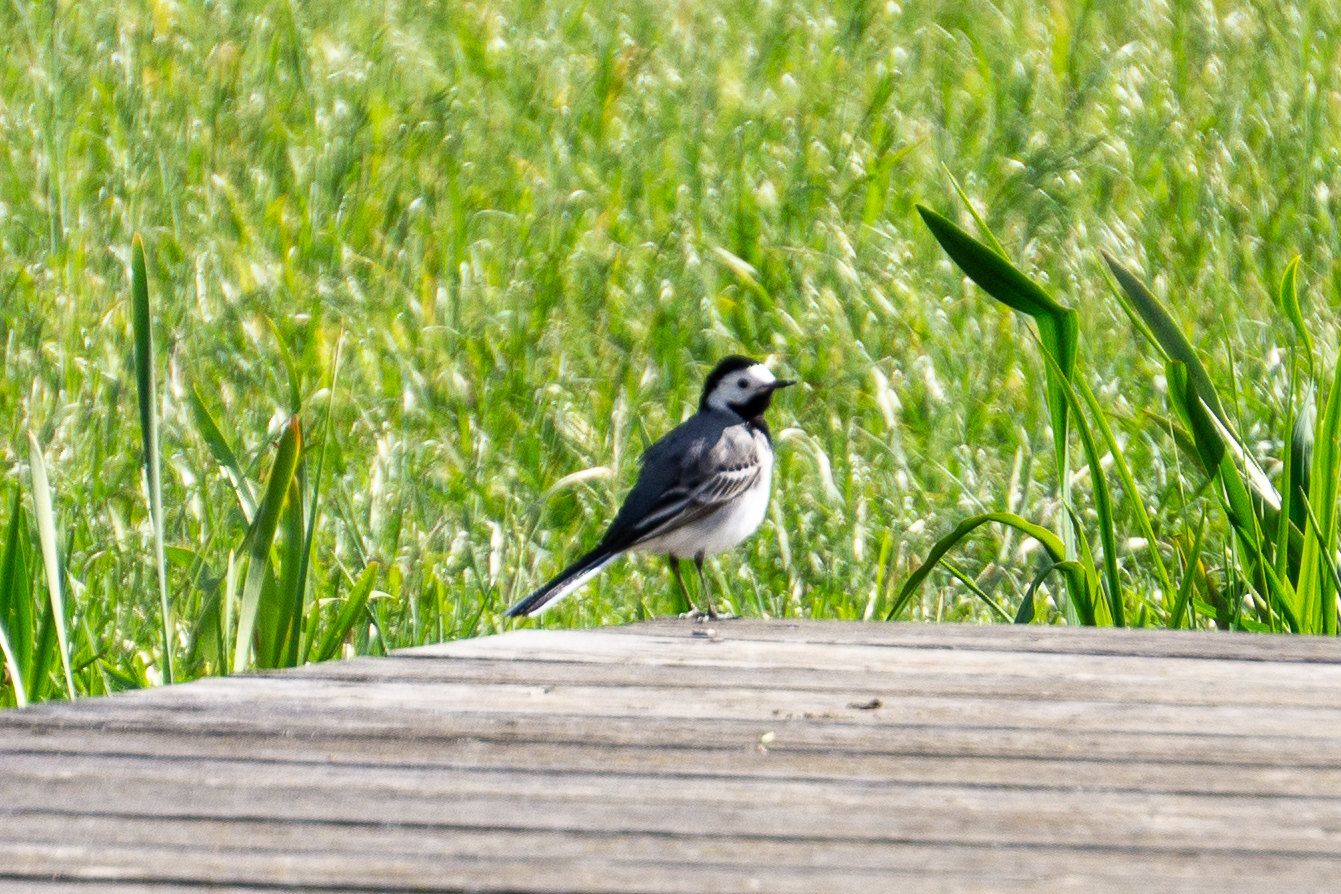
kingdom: Animalia
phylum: Chordata
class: Aves
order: Passeriformes
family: Motacillidae
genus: Motacilla
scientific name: Motacilla alba
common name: White wagtail
